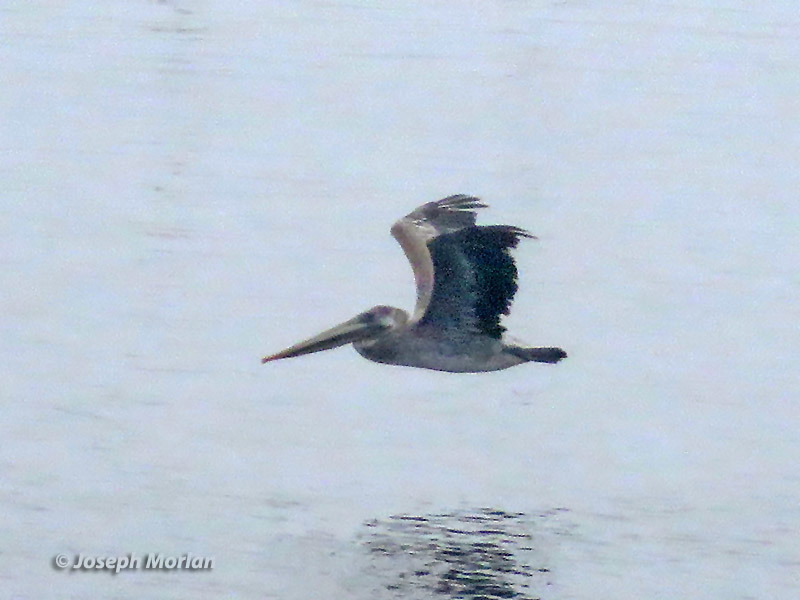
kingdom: Animalia
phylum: Chordata
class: Aves
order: Pelecaniformes
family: Pelecanidae
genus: Pelecanus
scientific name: Pelecanus occidentalis
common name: Brown pelican
